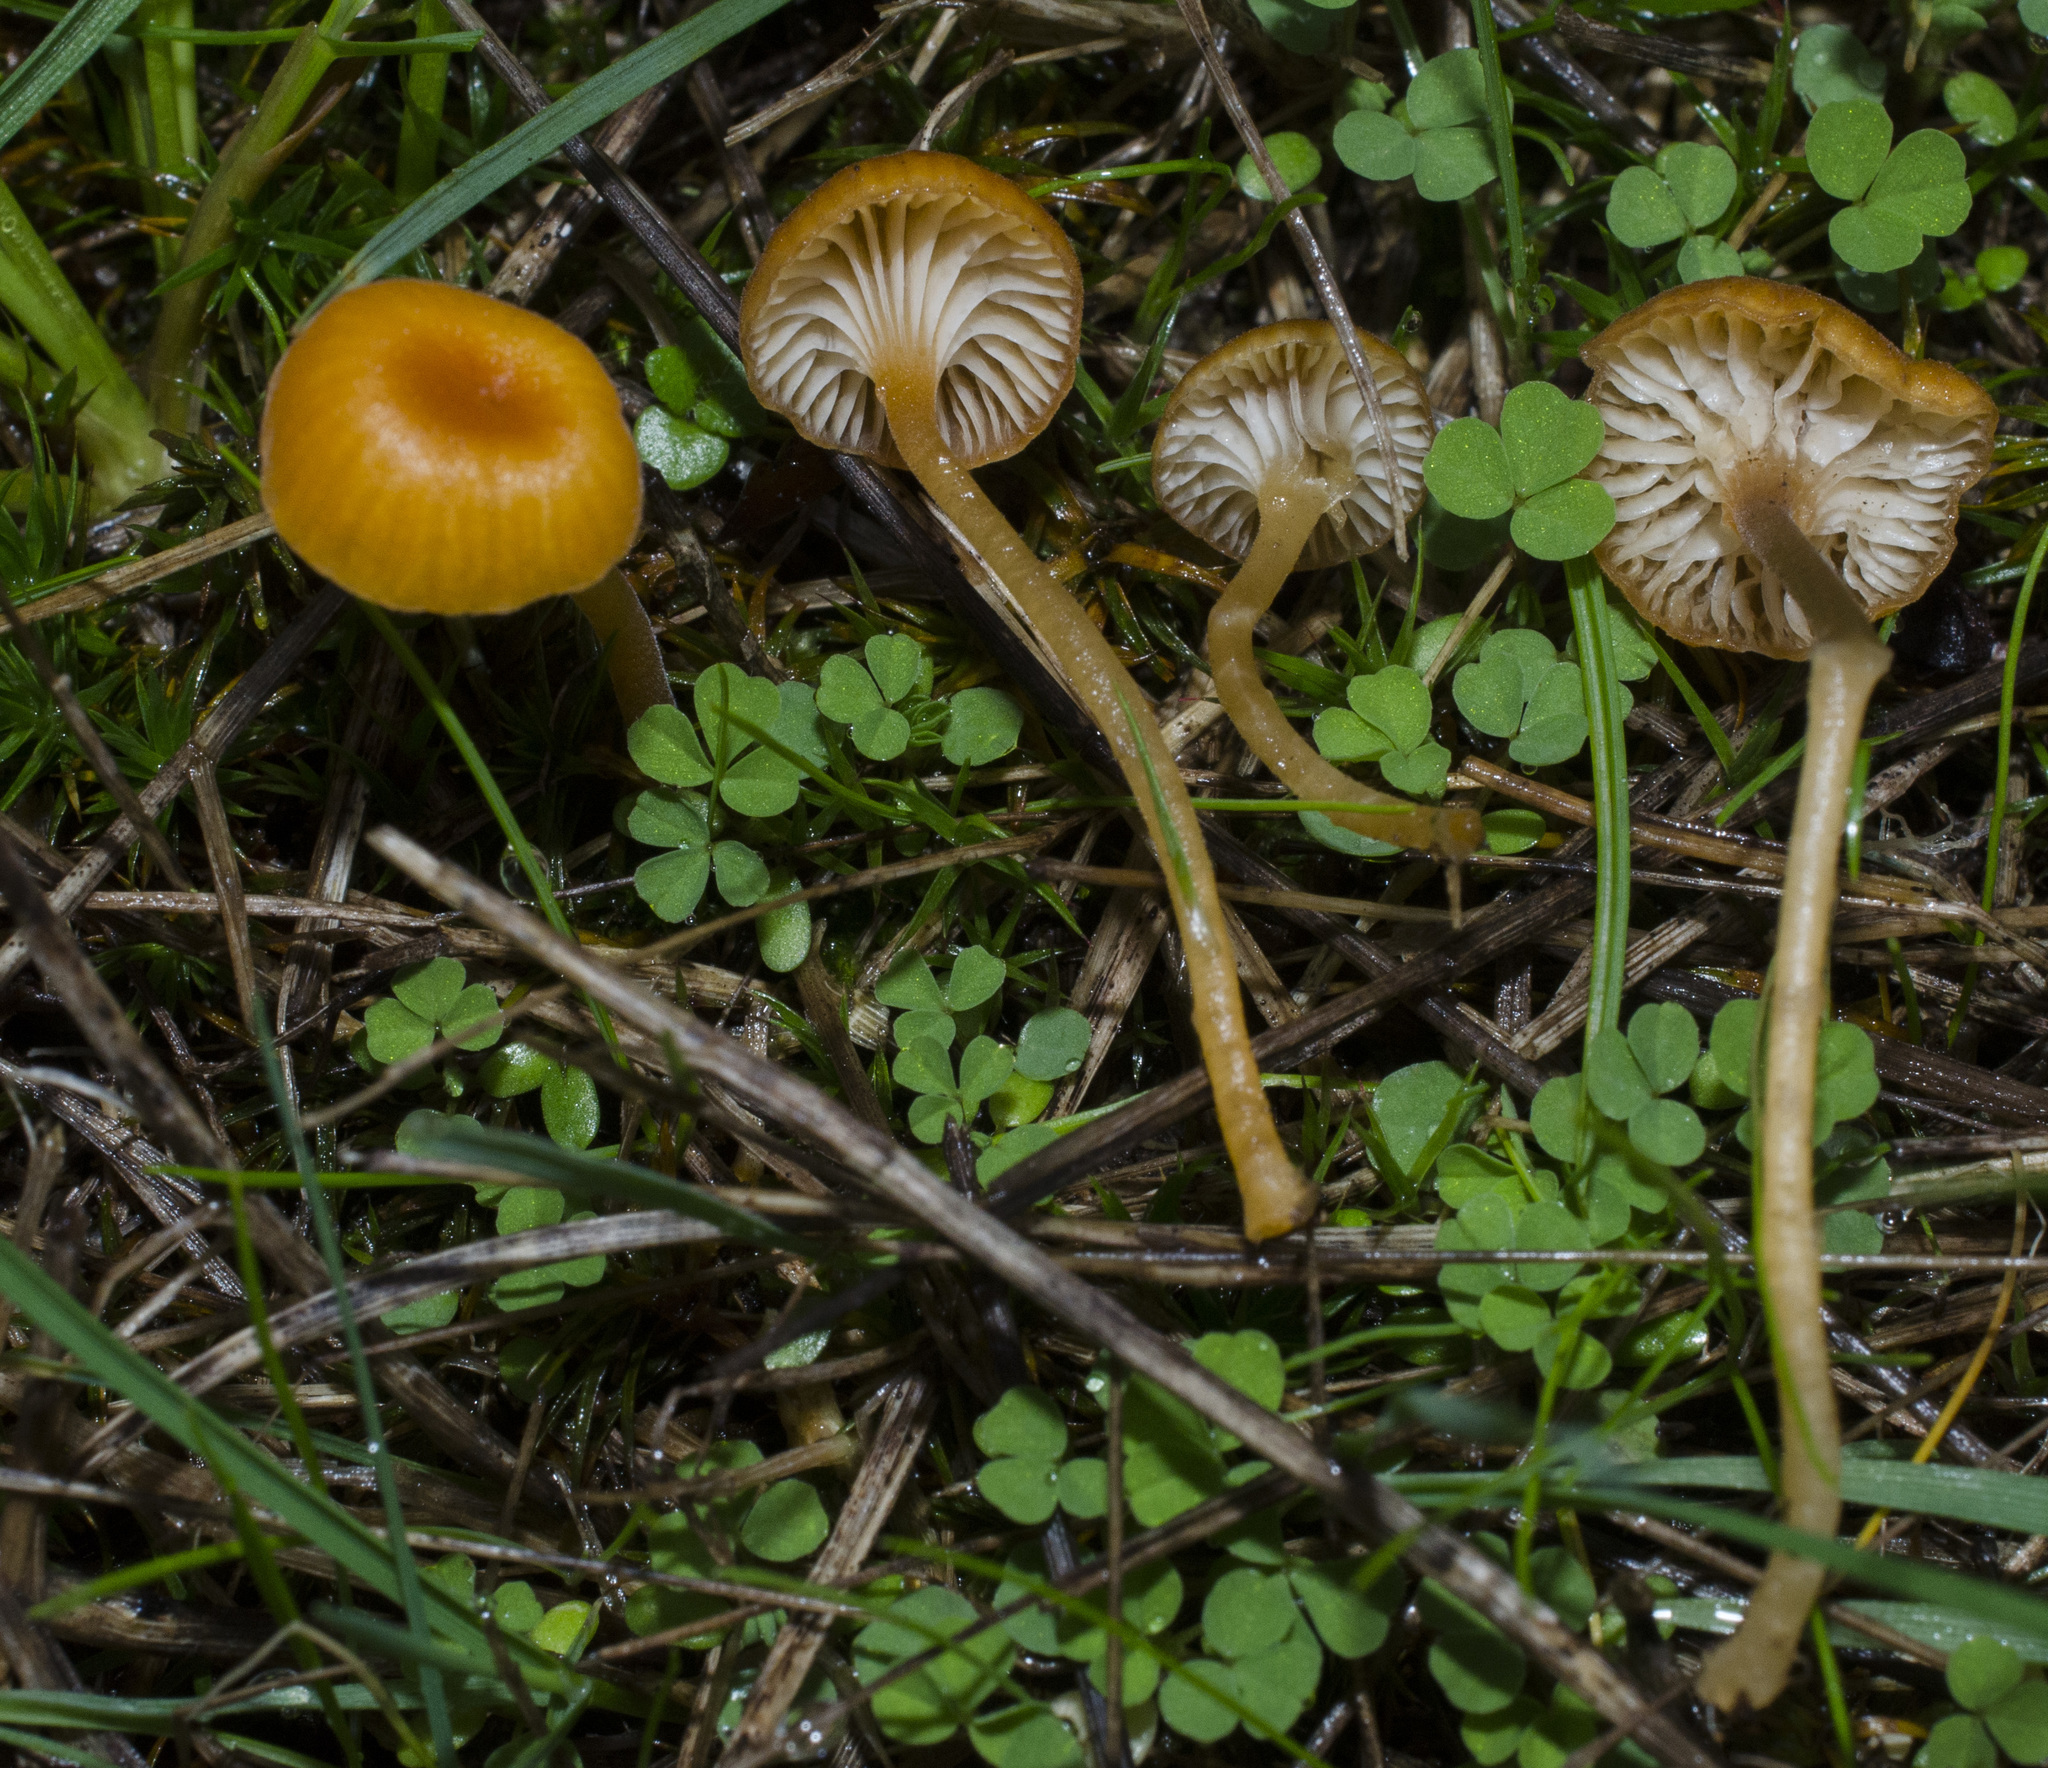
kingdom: Fungi
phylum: Basidiomycota
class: Agaricomycetes
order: Hymenochaetales
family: Rickenellaceae
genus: Rickenella
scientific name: Rickenella fibula
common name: Orange mosscap
